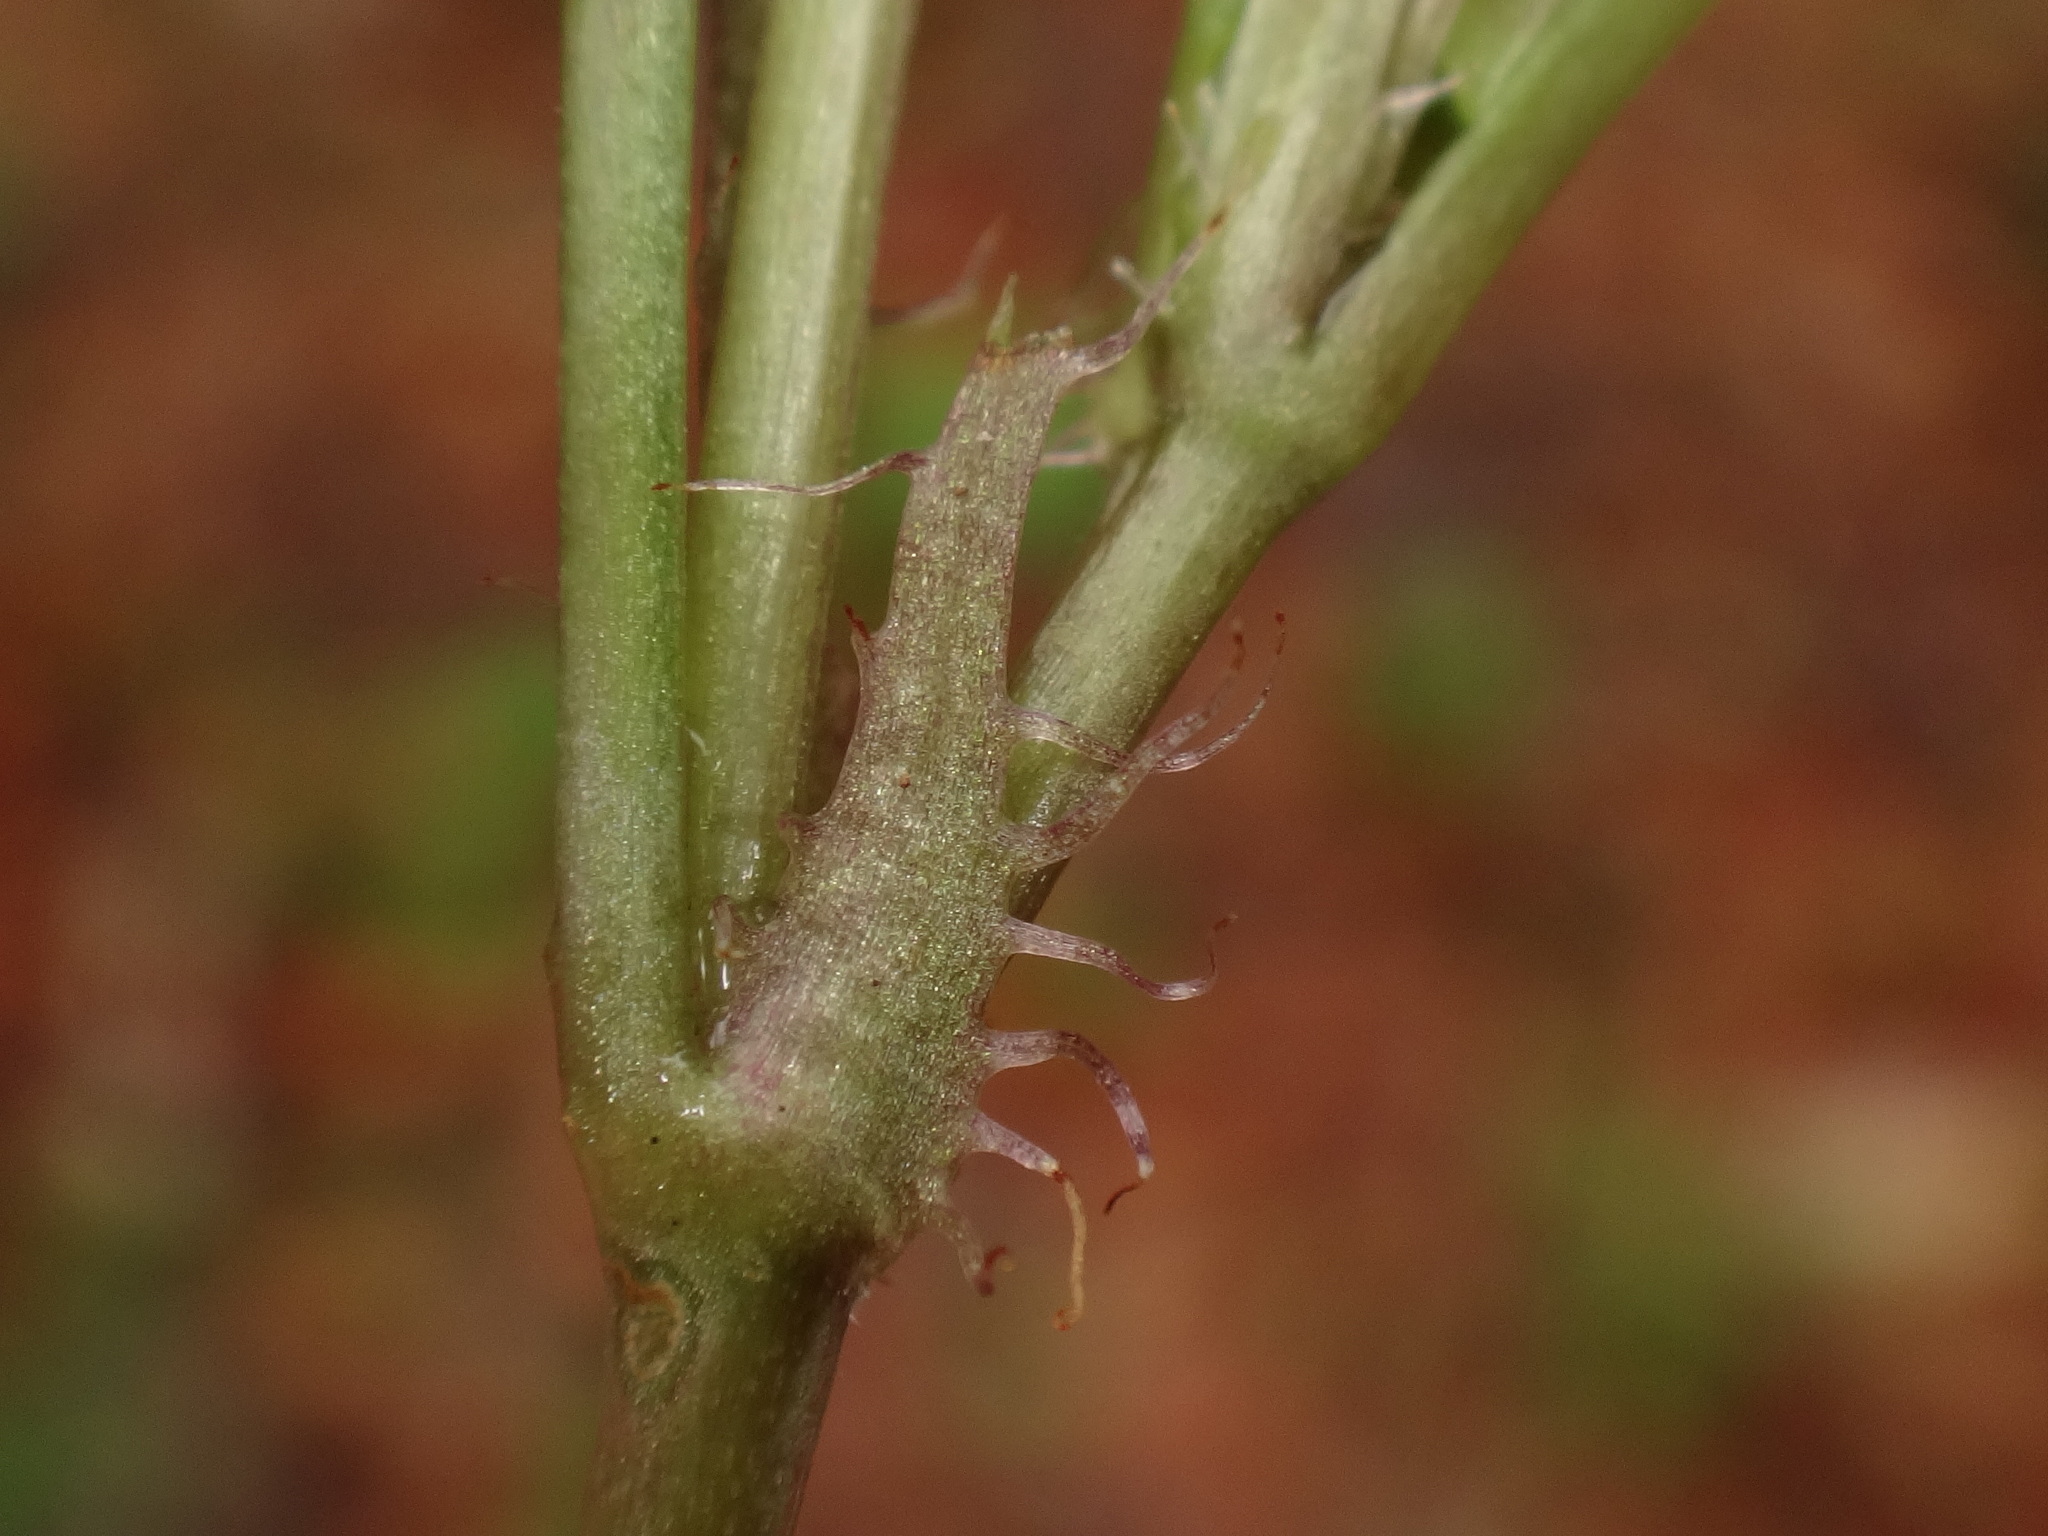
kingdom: Plantae
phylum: Tracheophyta
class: Magnoliopsida
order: Malpighiales
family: Violaceae
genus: Viola
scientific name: Viola reichenbachiana
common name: Early dog-violet
